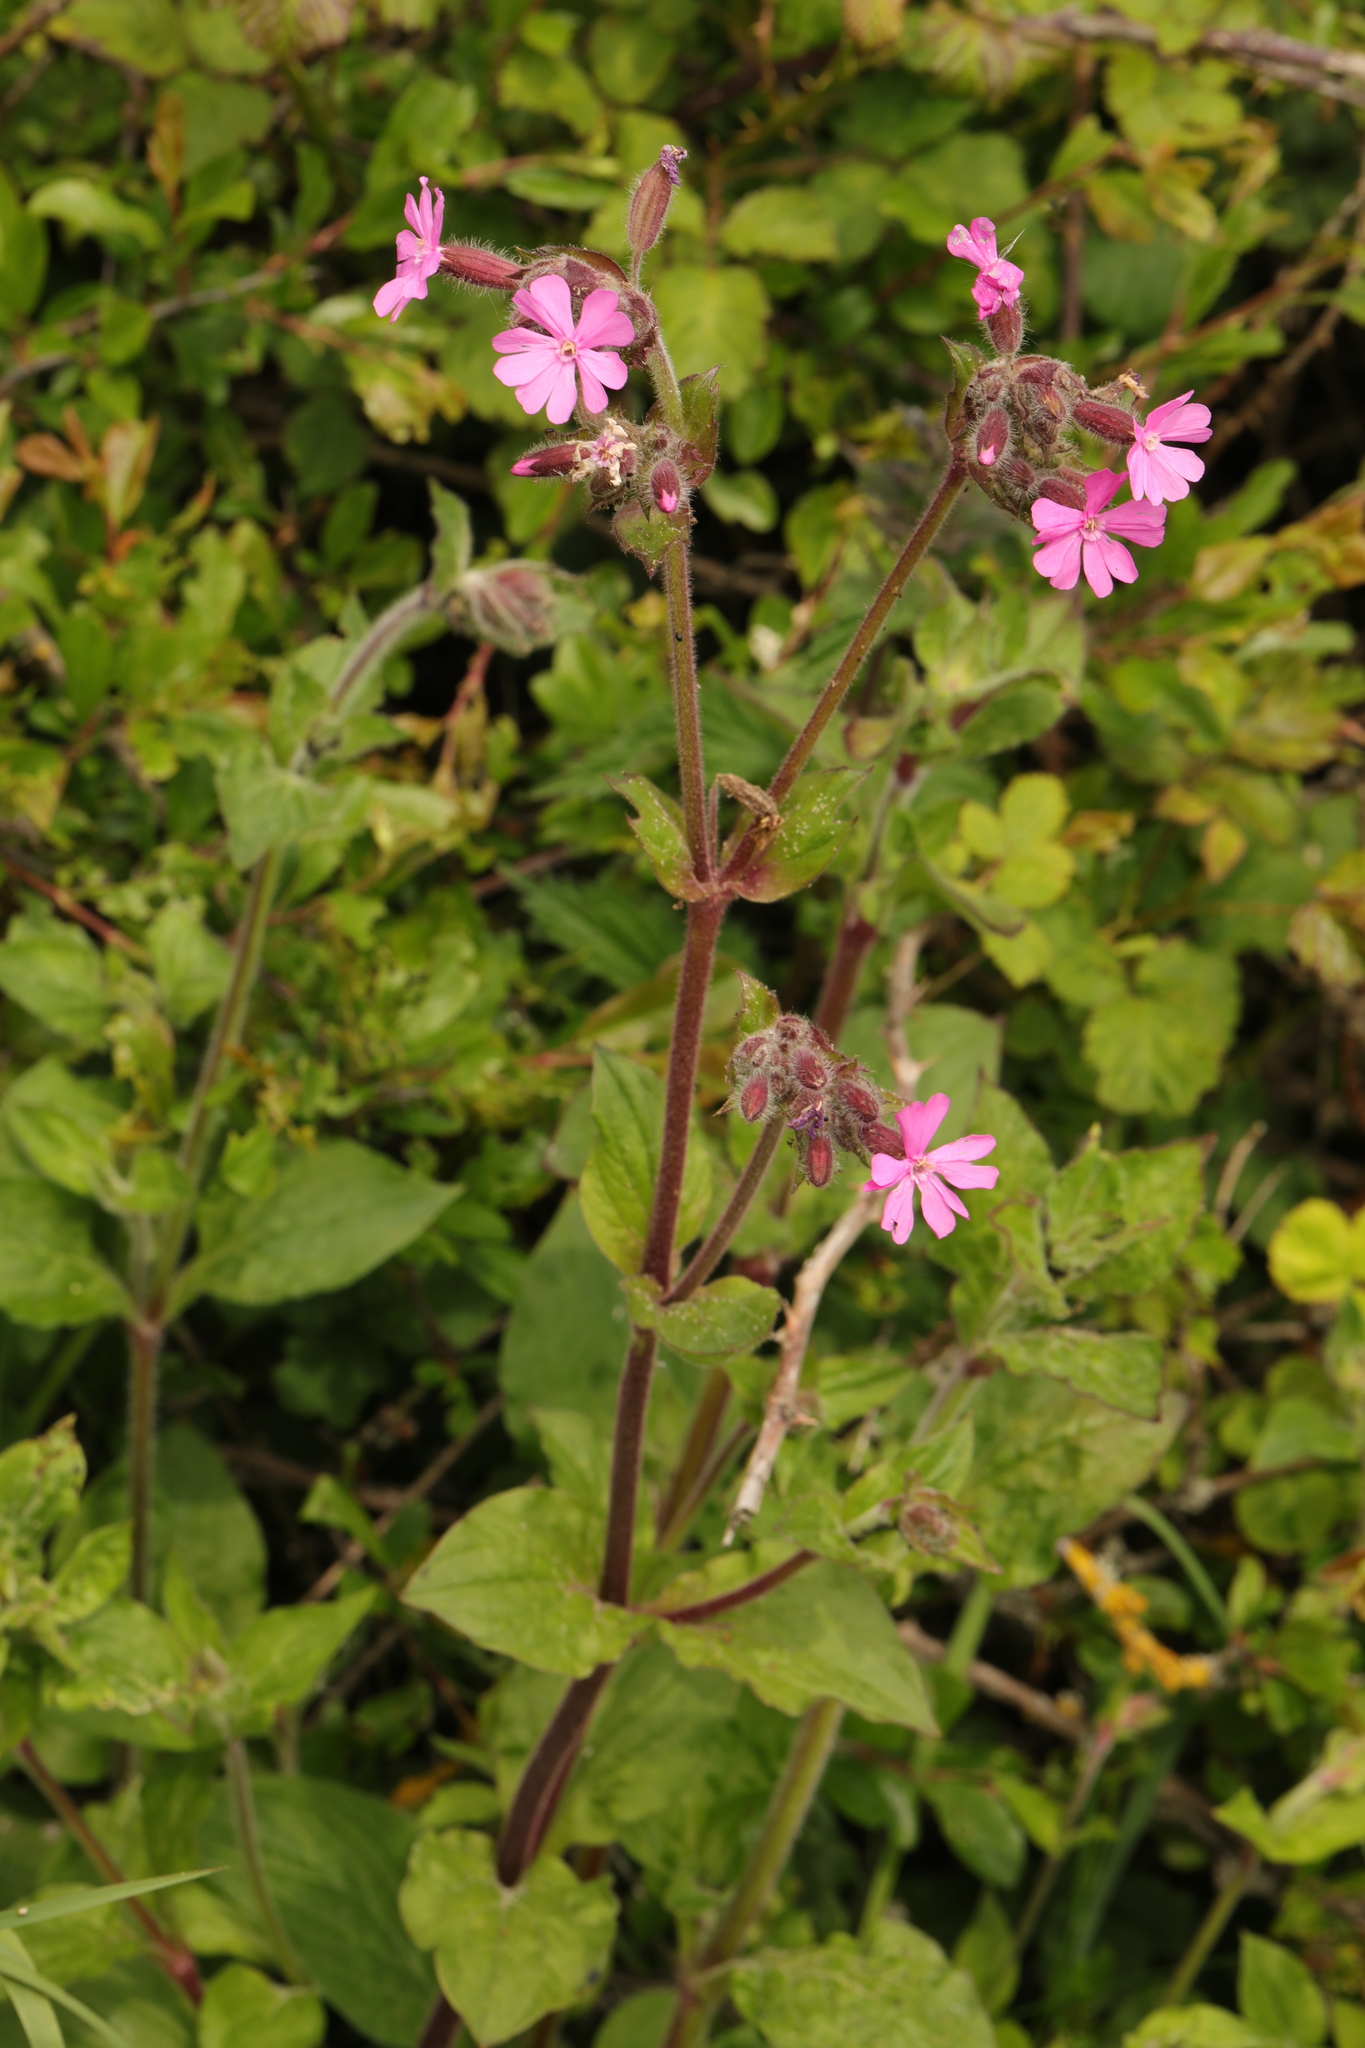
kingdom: Plantae
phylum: Tracheophyta
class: Magnoliopsida
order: Caryophyllales
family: Caryophyllaceae
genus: Silene
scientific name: Silene dioica
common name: Red campion
